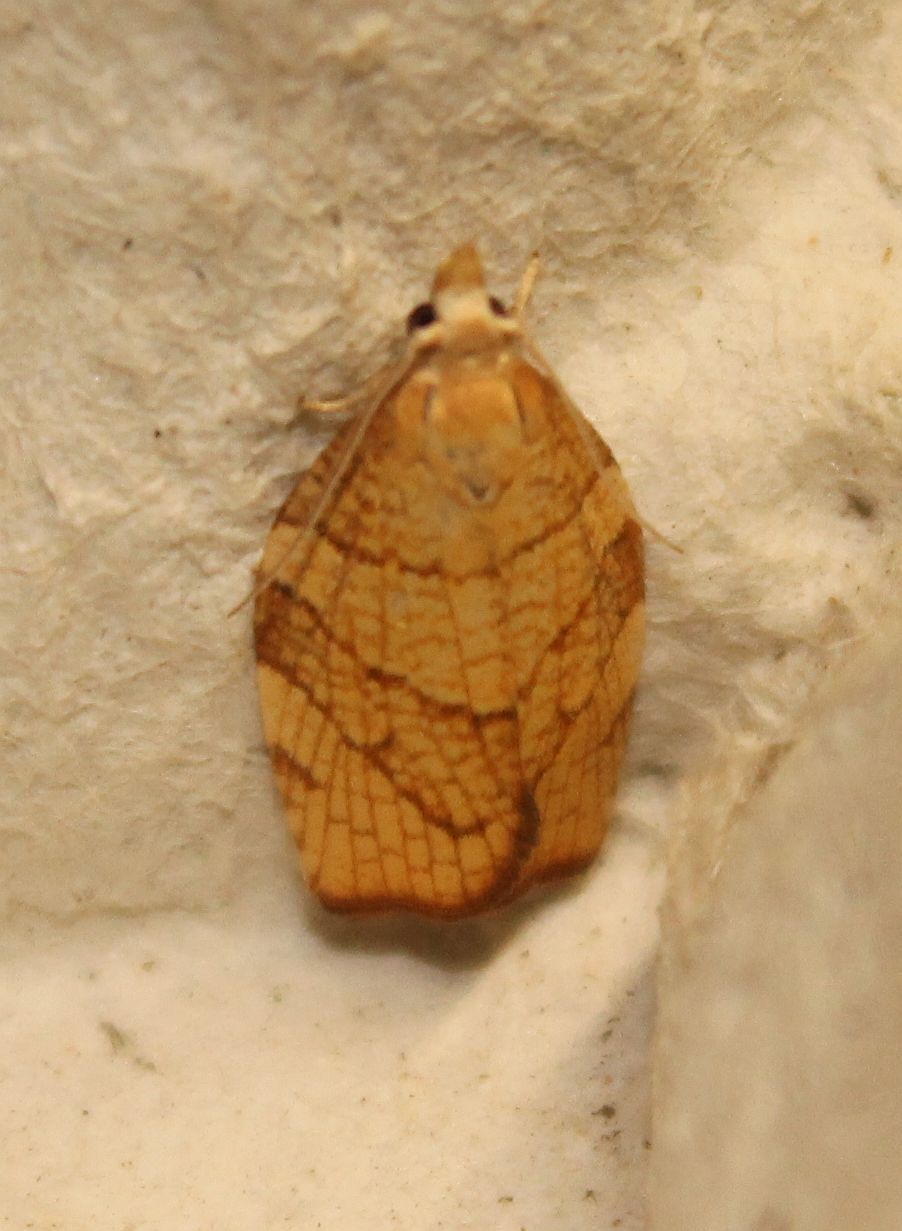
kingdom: Animalia
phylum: Arthropoda
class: Insecta
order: Lepidoptera
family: Tortricidae
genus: Pandemis
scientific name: Pandemis corylana
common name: Chequered fruit-tree tortrix
